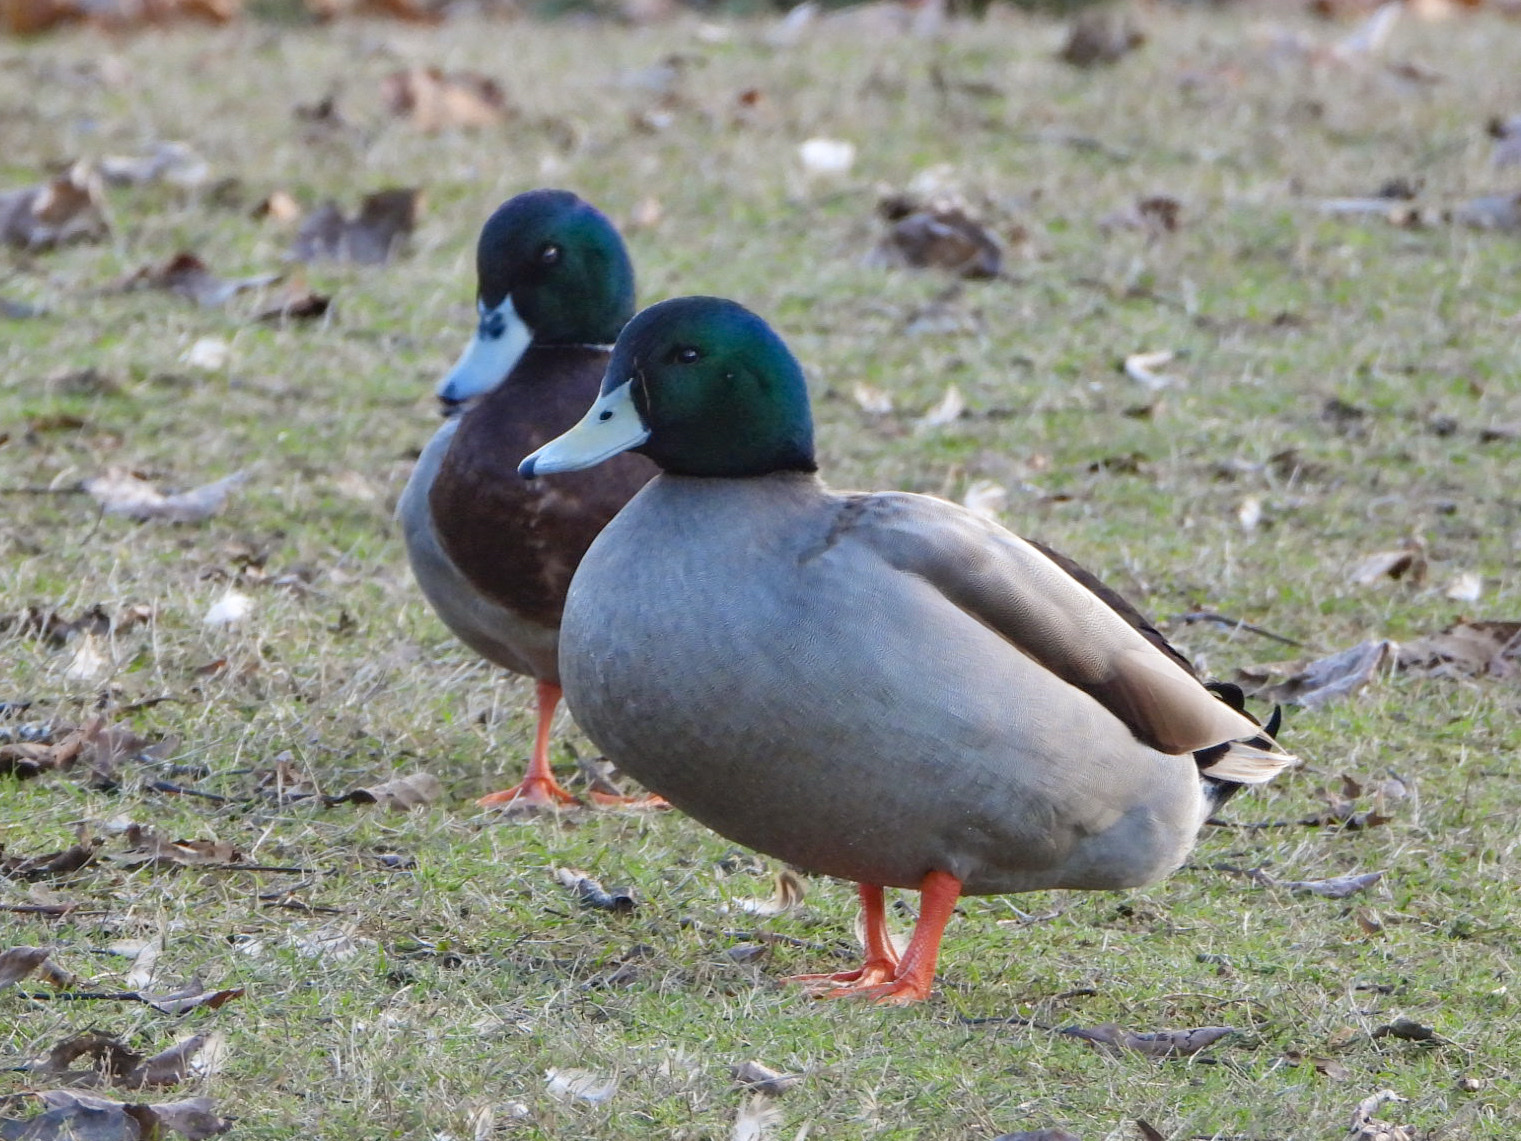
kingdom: Animalia
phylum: Chordata
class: Aves
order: Anseriformes
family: Anatidae
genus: Anas
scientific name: Anas platyrhynchos
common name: Mallard
